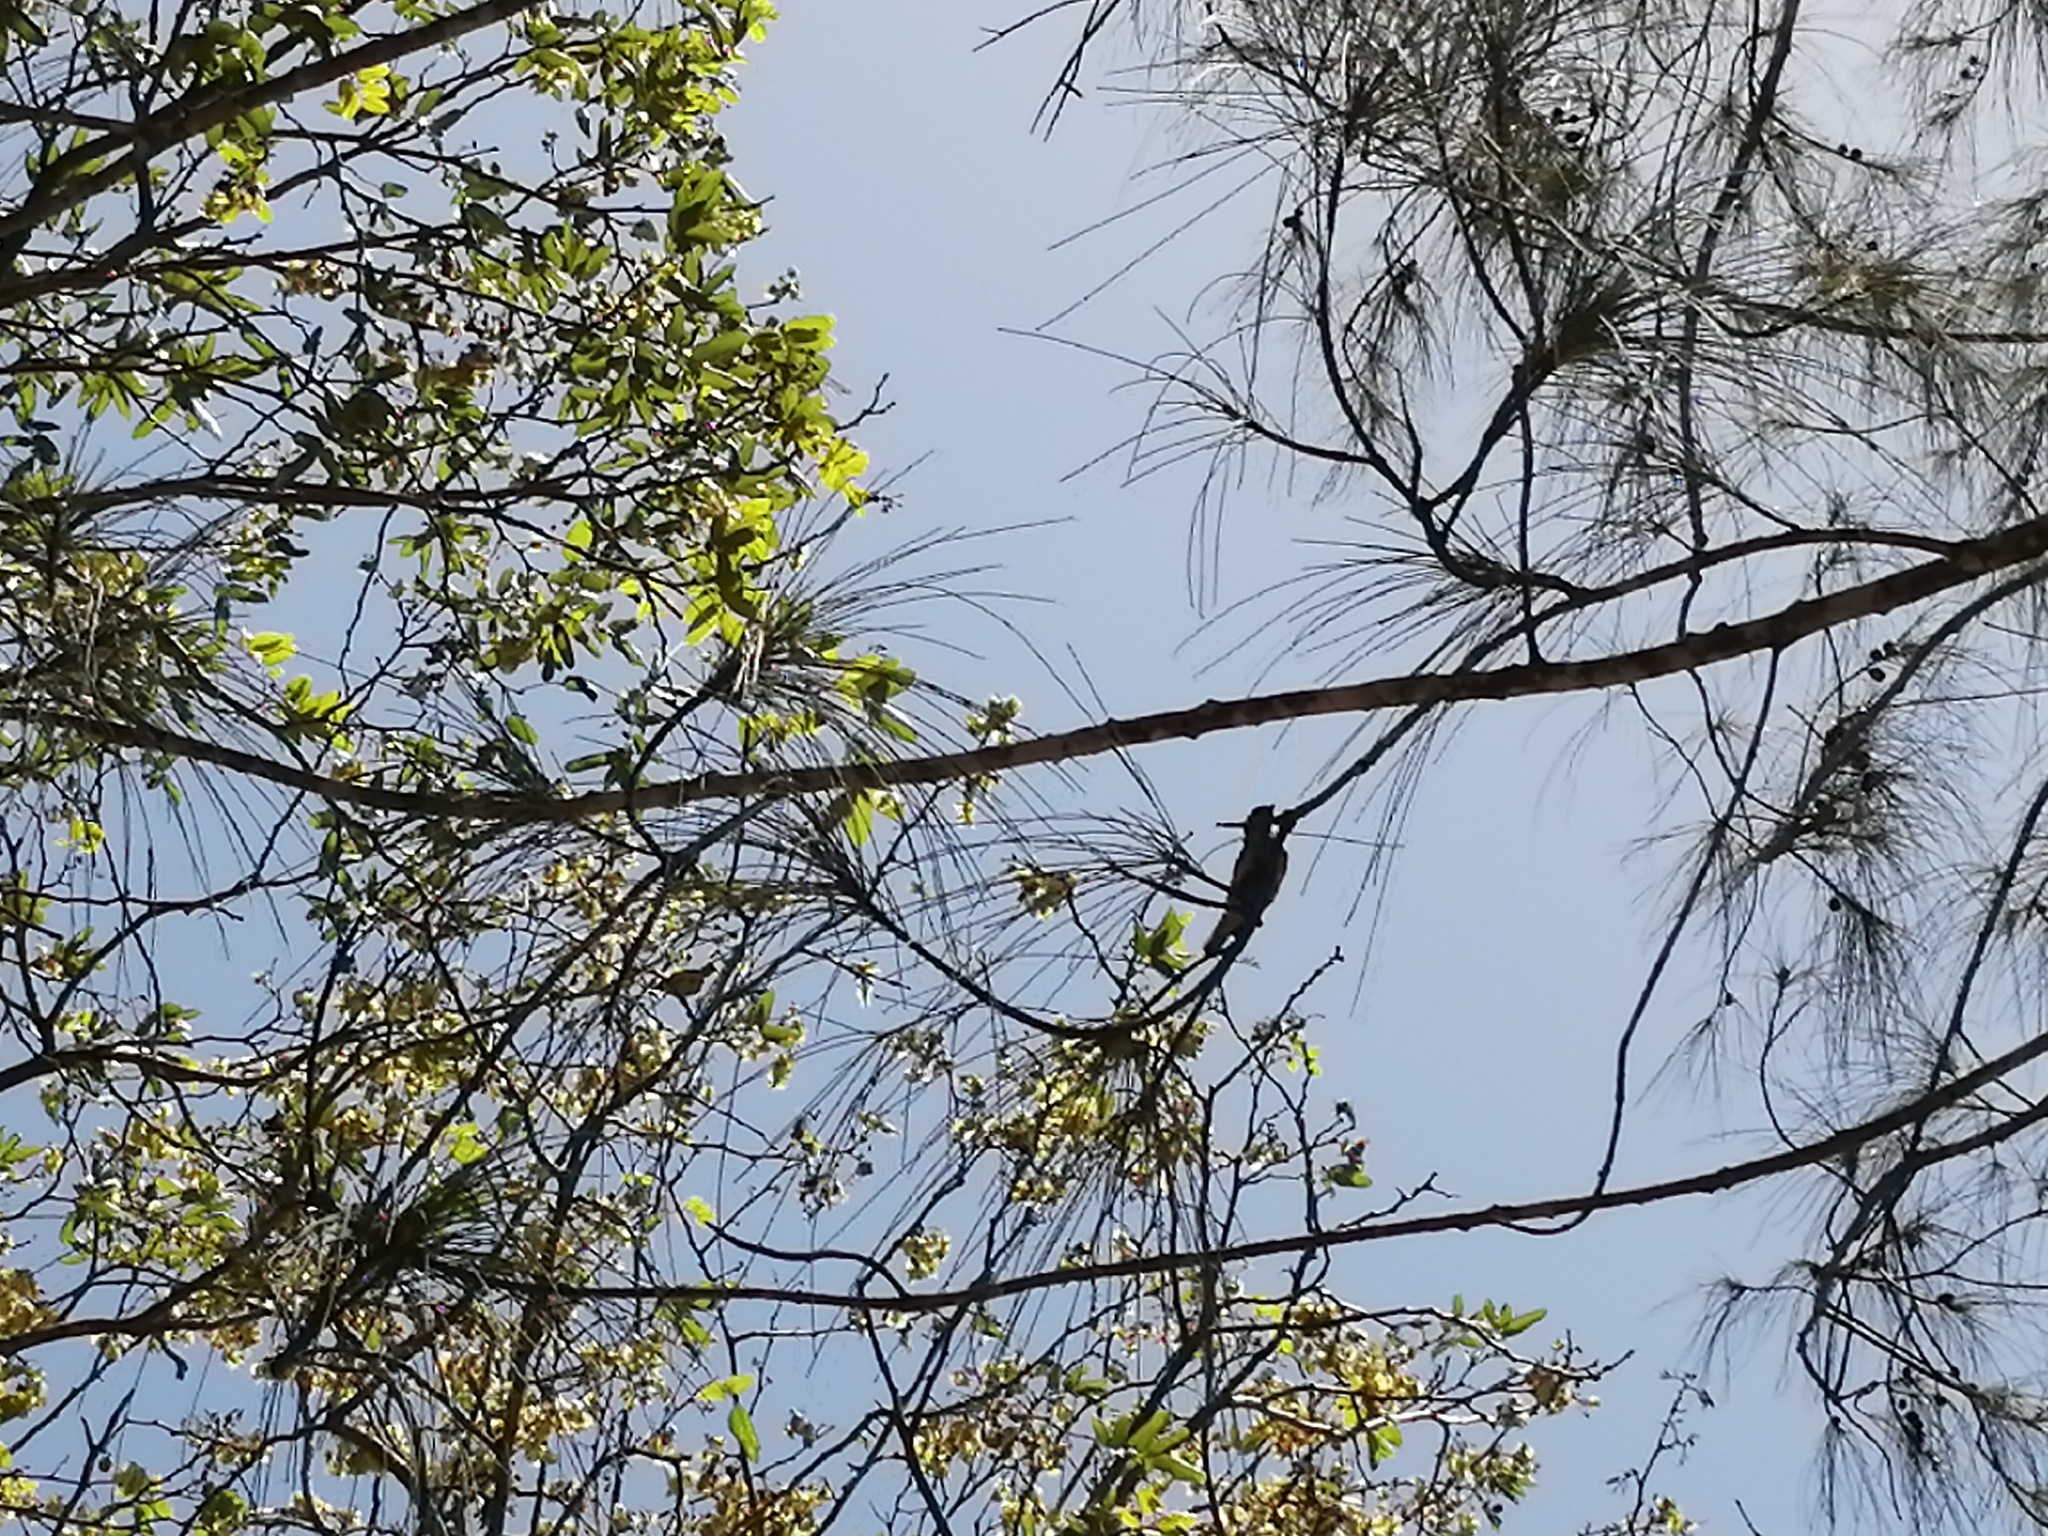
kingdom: Animalia
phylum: Chordata
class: Aves
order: Passeriformes
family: Fringillidae
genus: Euphonia
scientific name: Euphonia affinis
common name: Scrub euphonia
